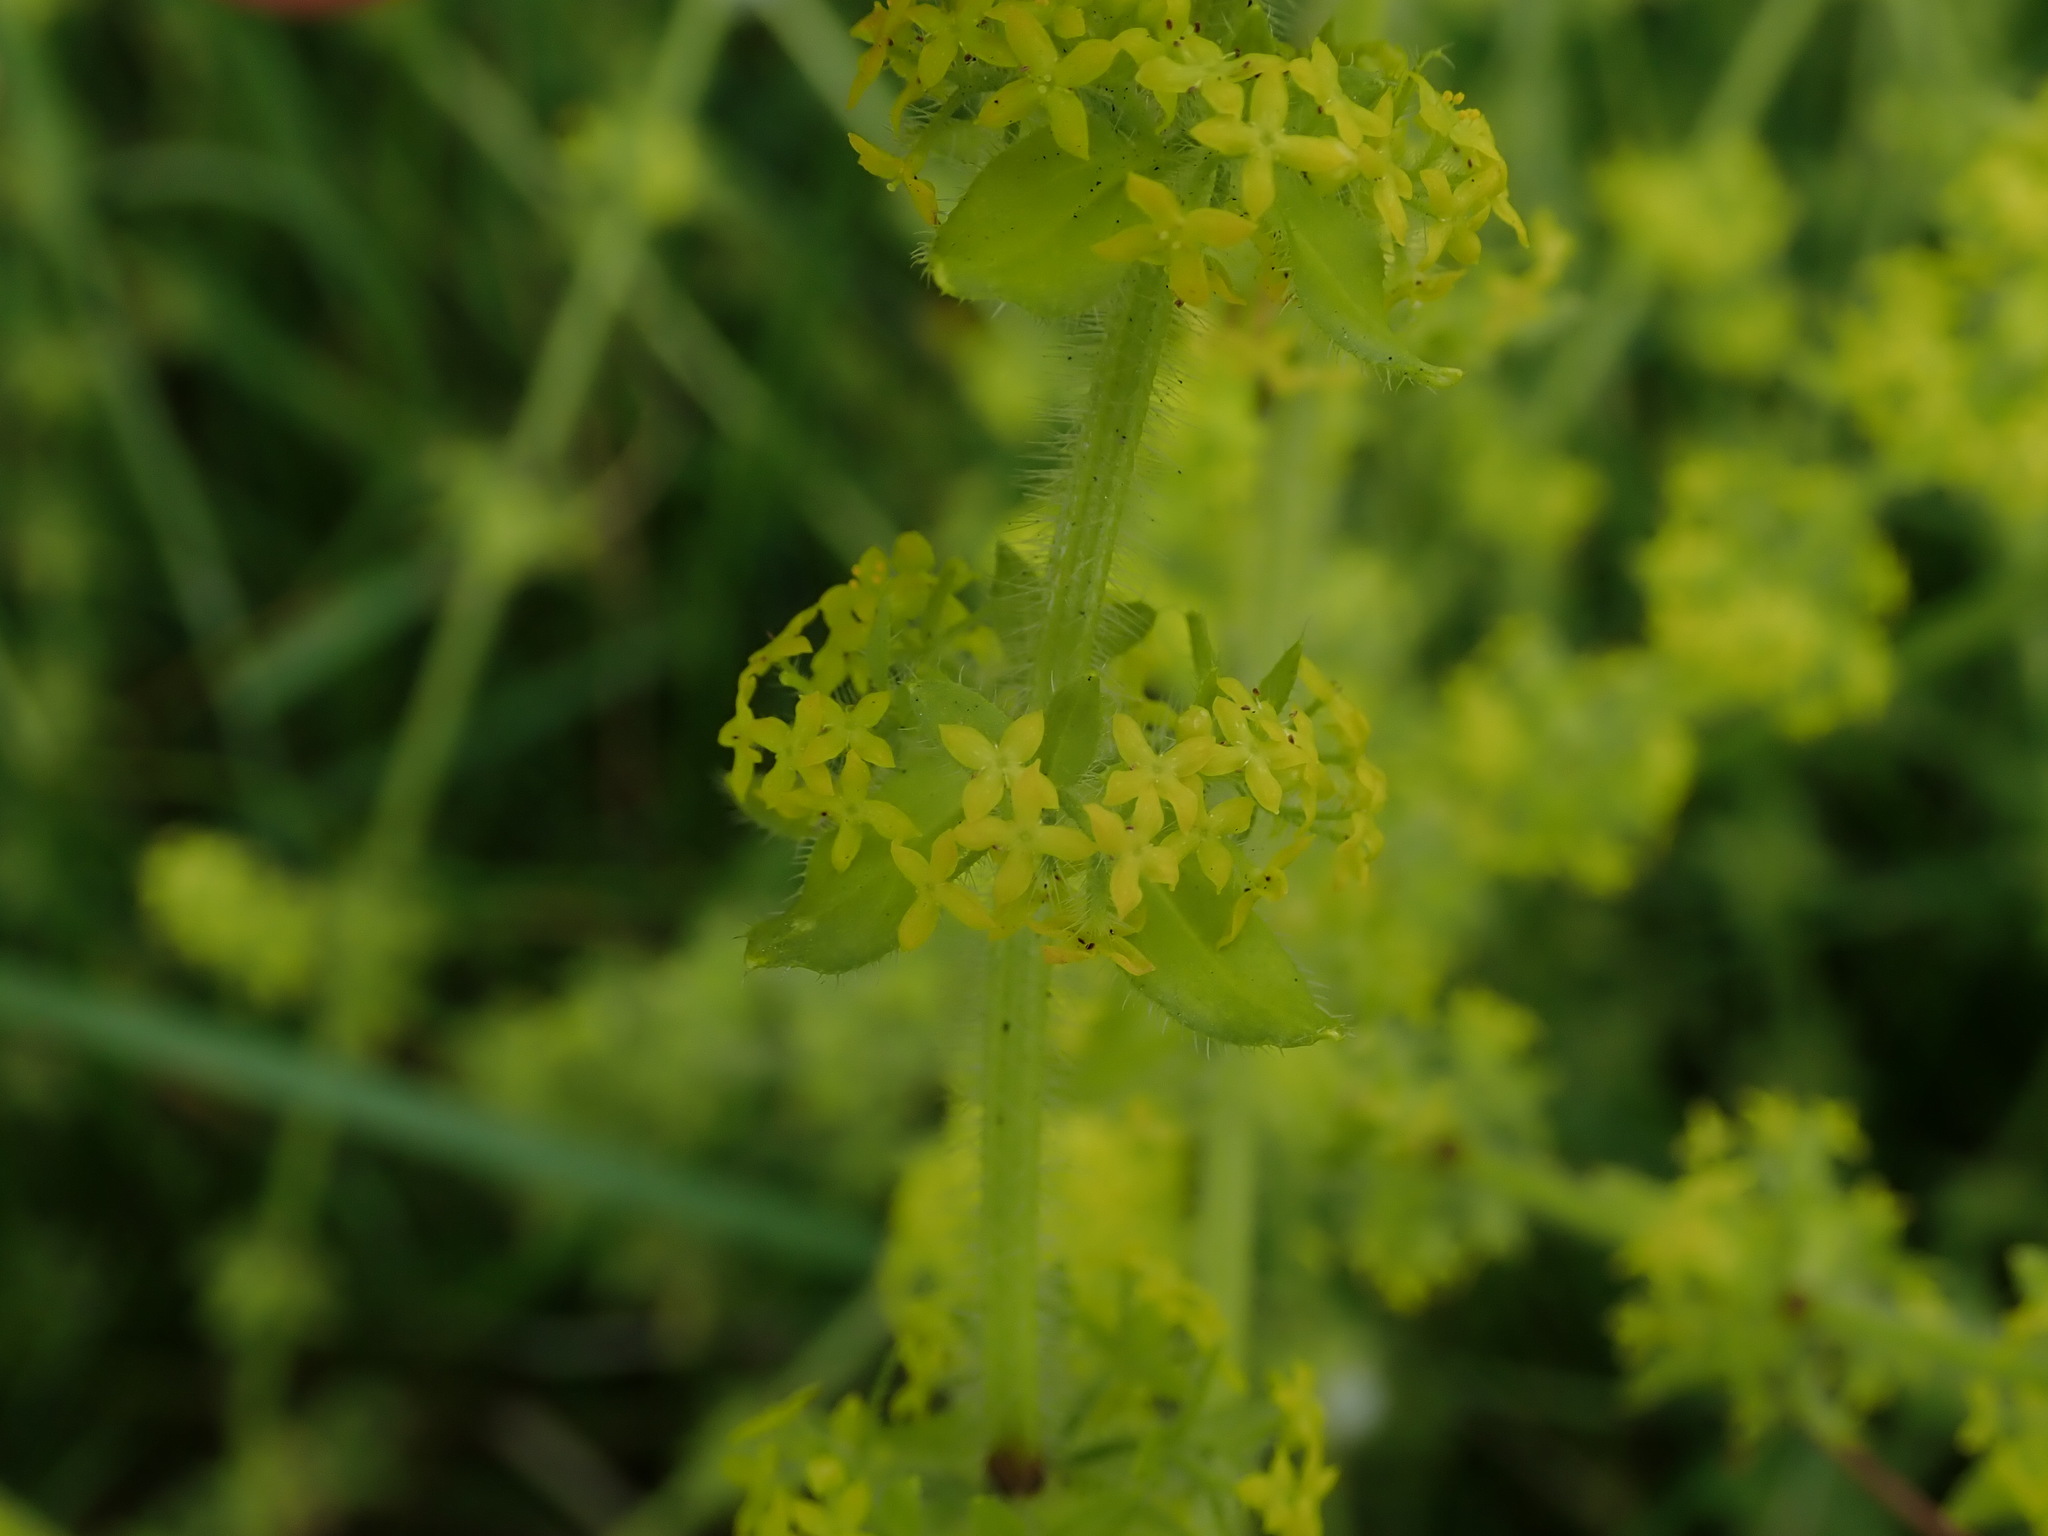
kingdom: Plantae
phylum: Tracheophyta
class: Magnoliopsida
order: Gentianales
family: Rubiaceae
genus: Cruciata
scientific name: Cruciata laevipes
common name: Crosswort
